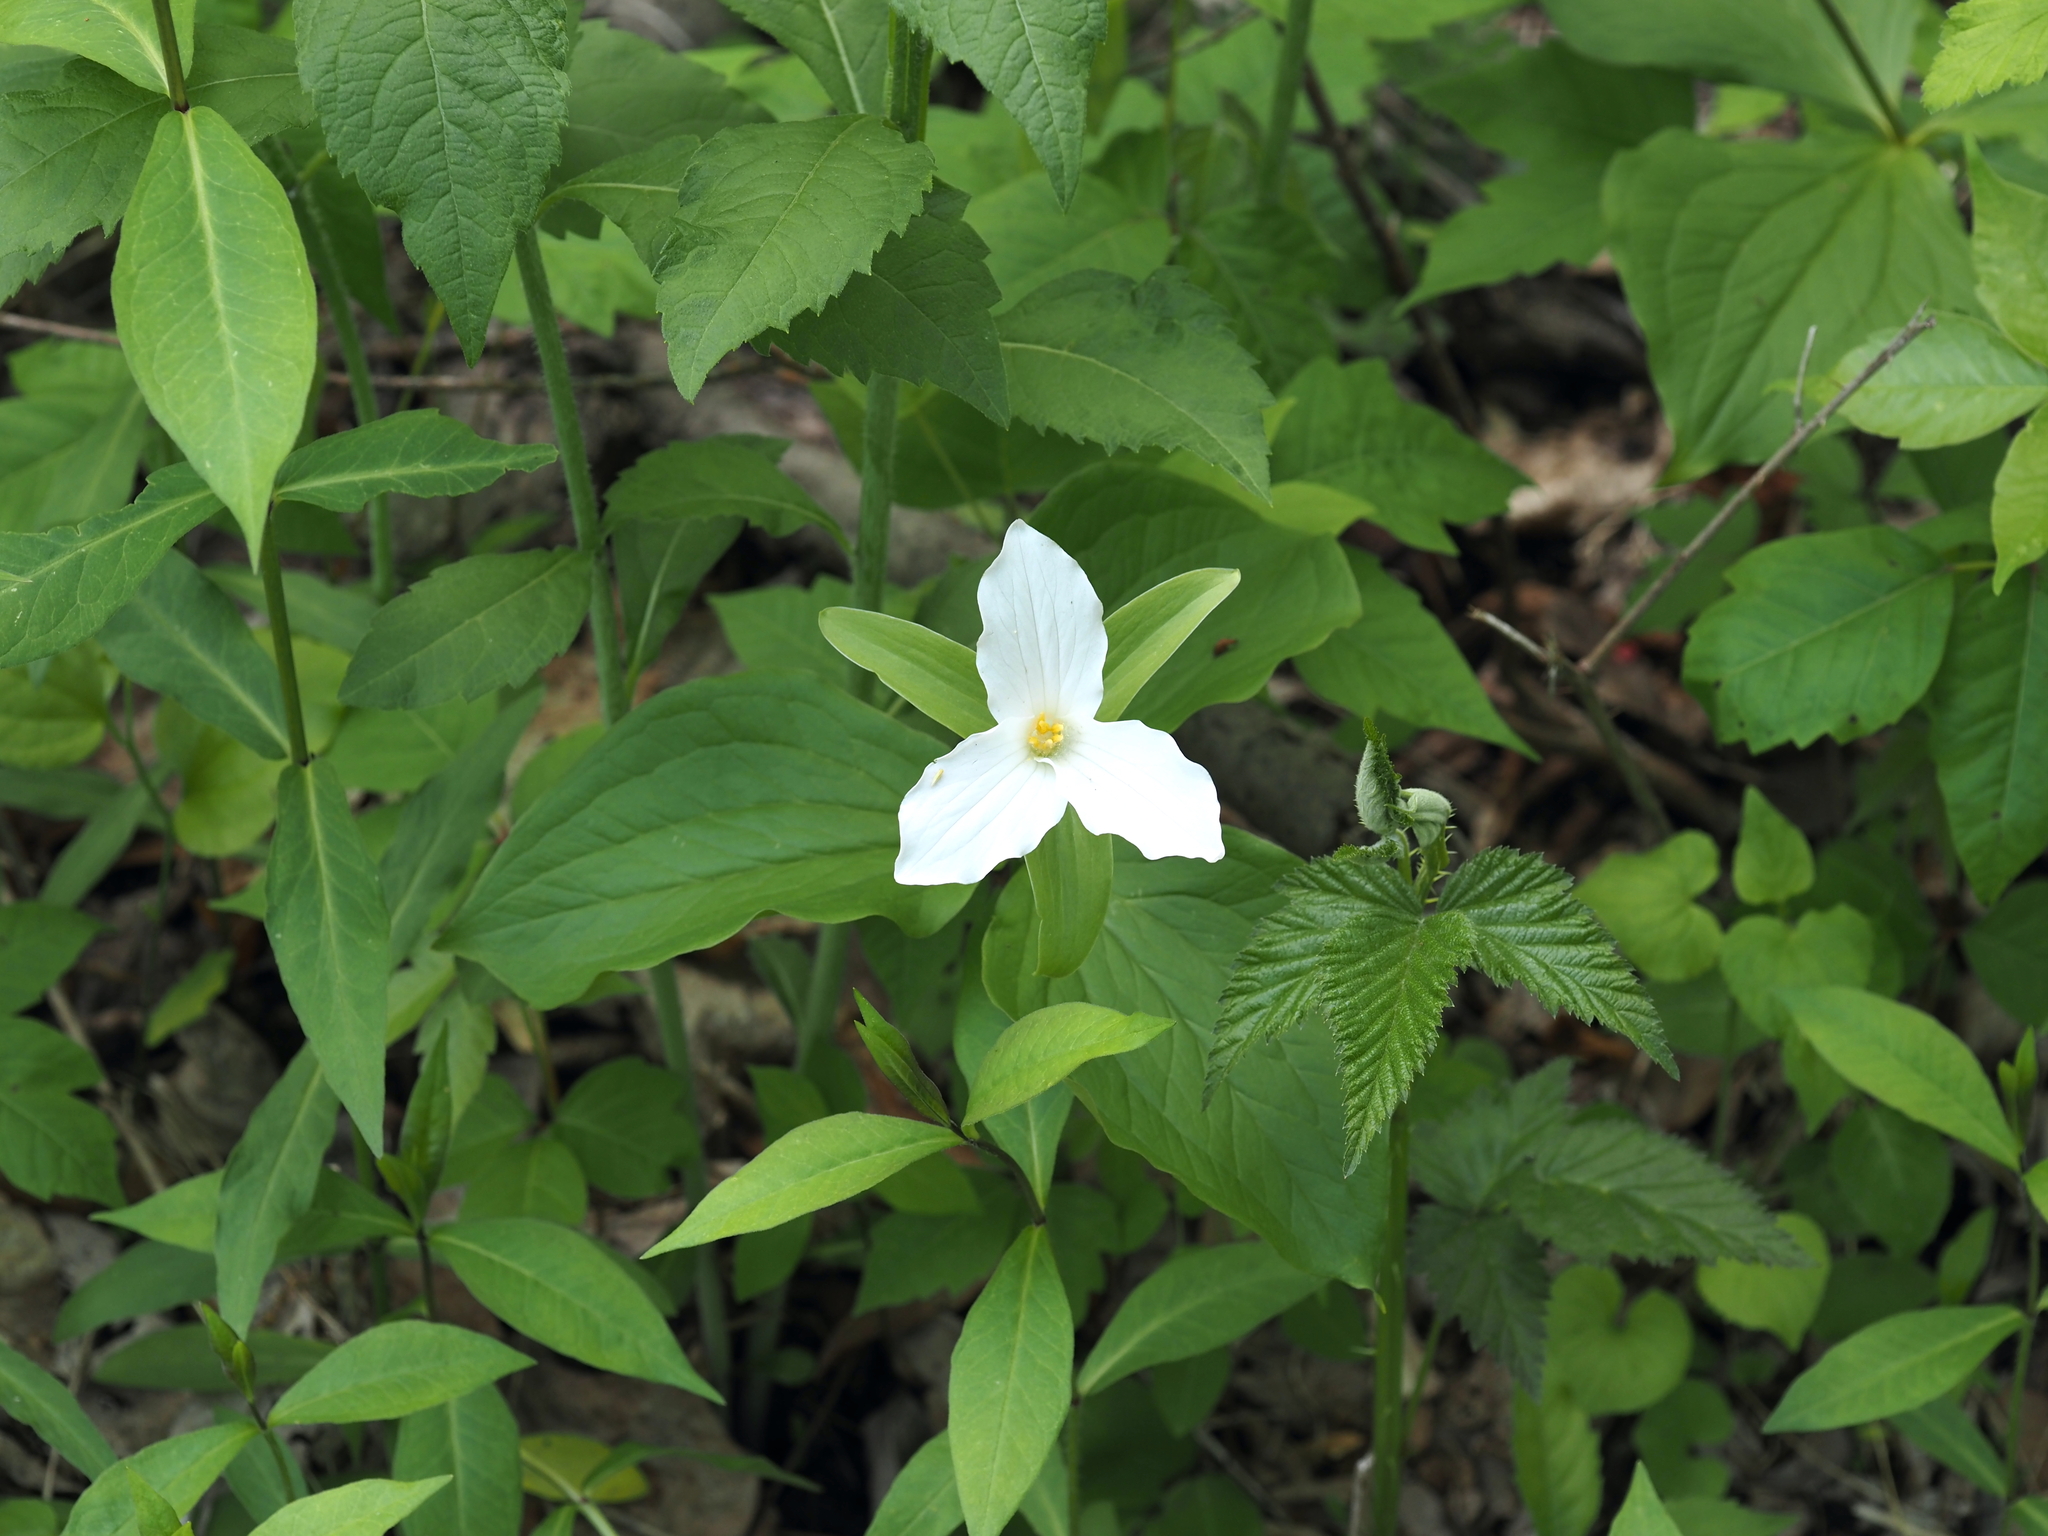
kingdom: Plantae
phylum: Tracheophyta
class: Liliopsida
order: Liliales
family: Melanthiaceae
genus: Trillium
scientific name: Trillium grandiflorum
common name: Great white trillium
